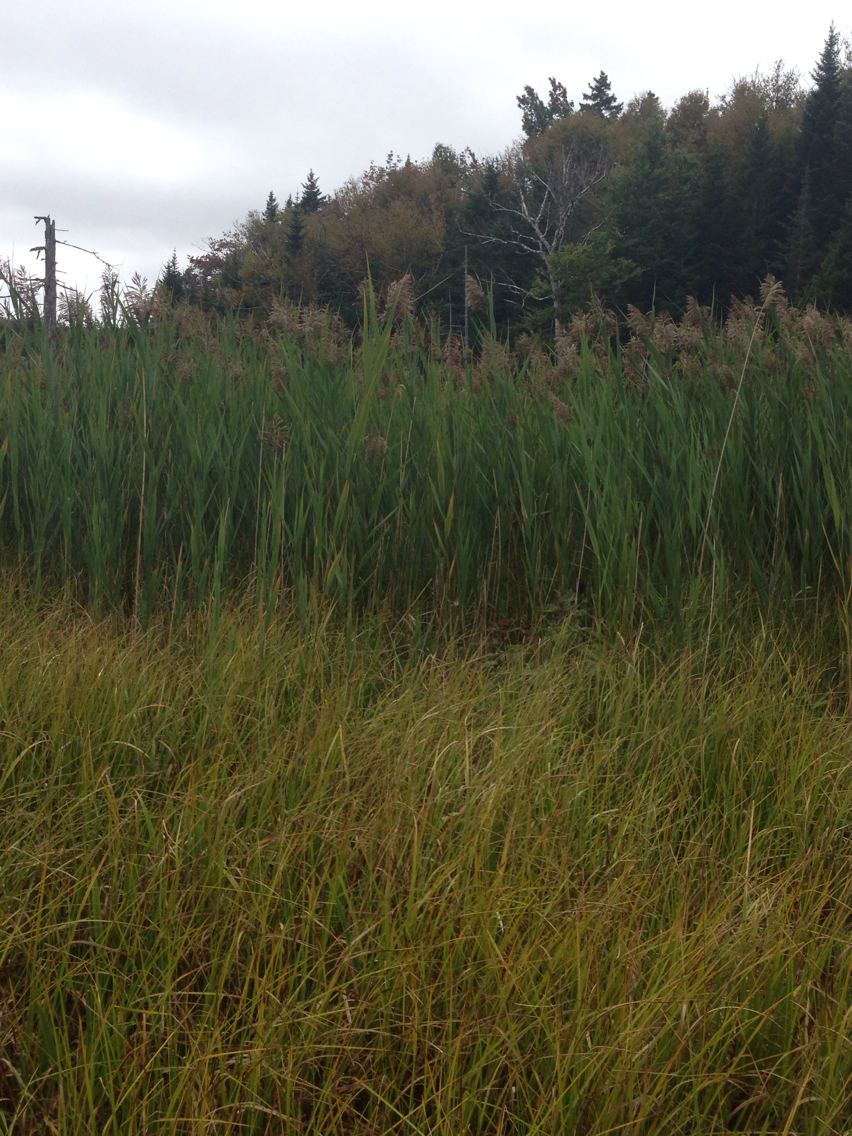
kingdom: Plantae
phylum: Tracheophyta
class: Liliopsida
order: Poales
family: Poaceae
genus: Phragmites
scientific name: Phragmites australis
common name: Common reed
